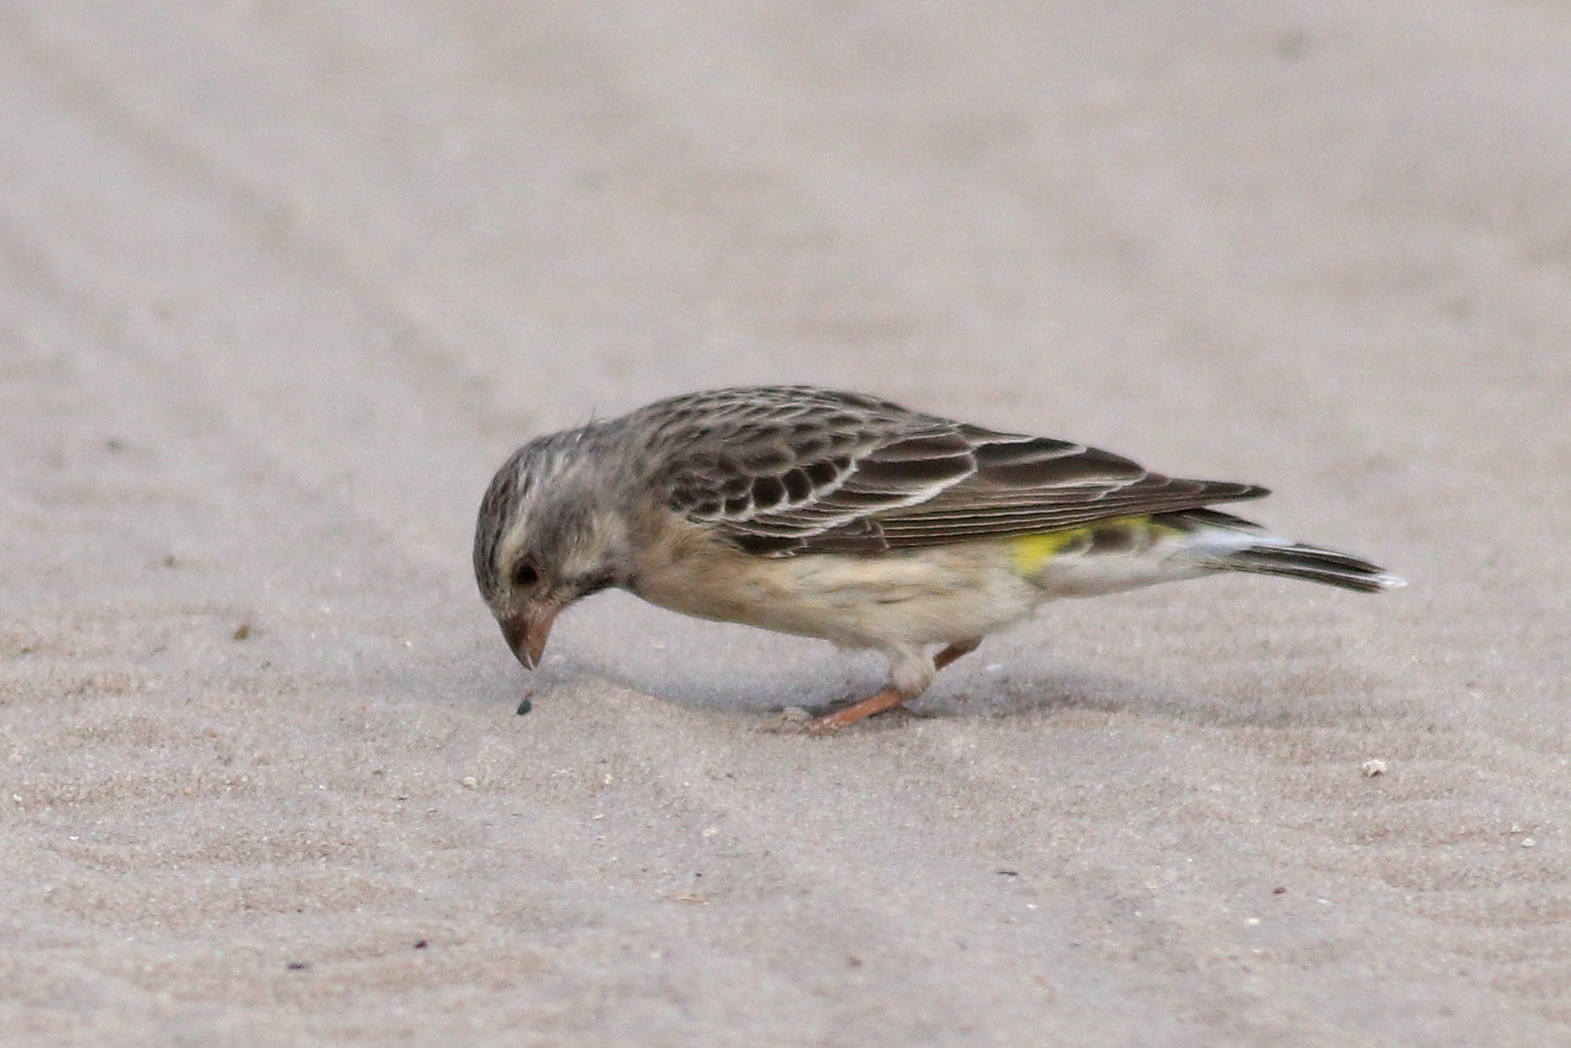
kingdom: Animalia
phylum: Chordata
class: Aves
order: Passeriformes
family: Fringillidae
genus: Crithagra
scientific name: Crithagra atrogularis
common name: Black-throated canary
